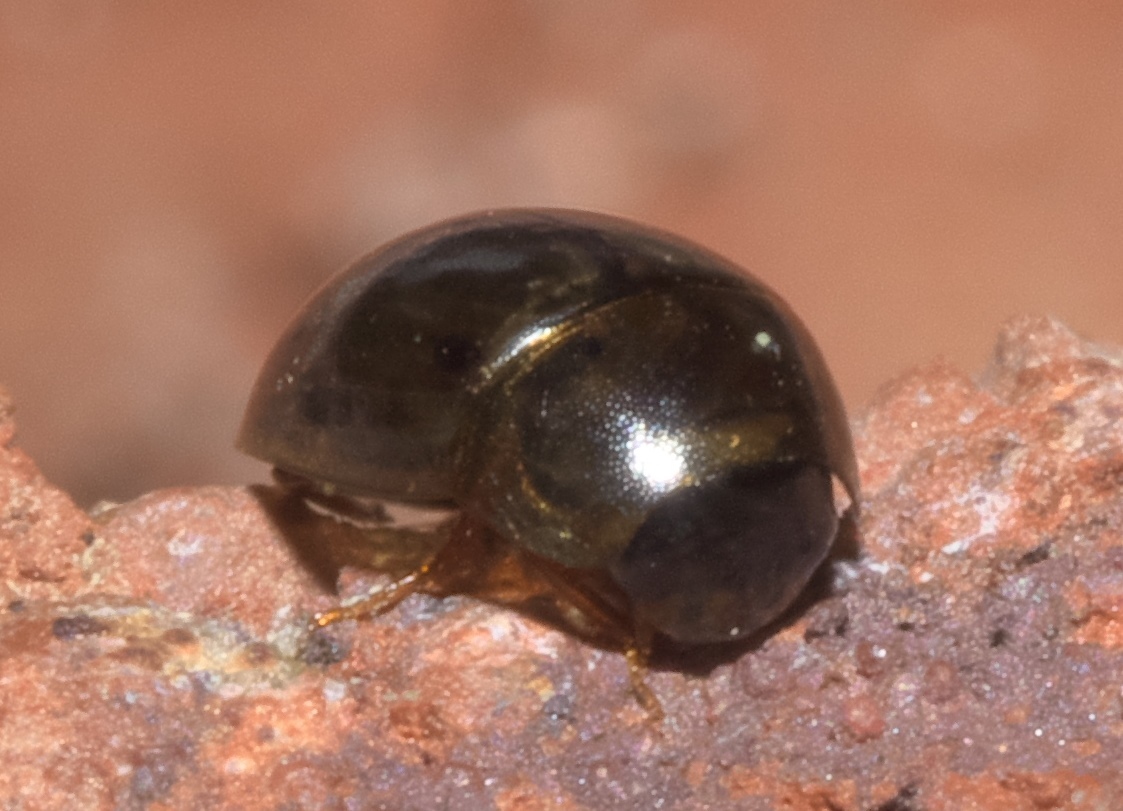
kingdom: Animalia
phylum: Arthropoda
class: Insecta
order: Coleoptera
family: Hydrophilidae
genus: Enochrus
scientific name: Enochrus
